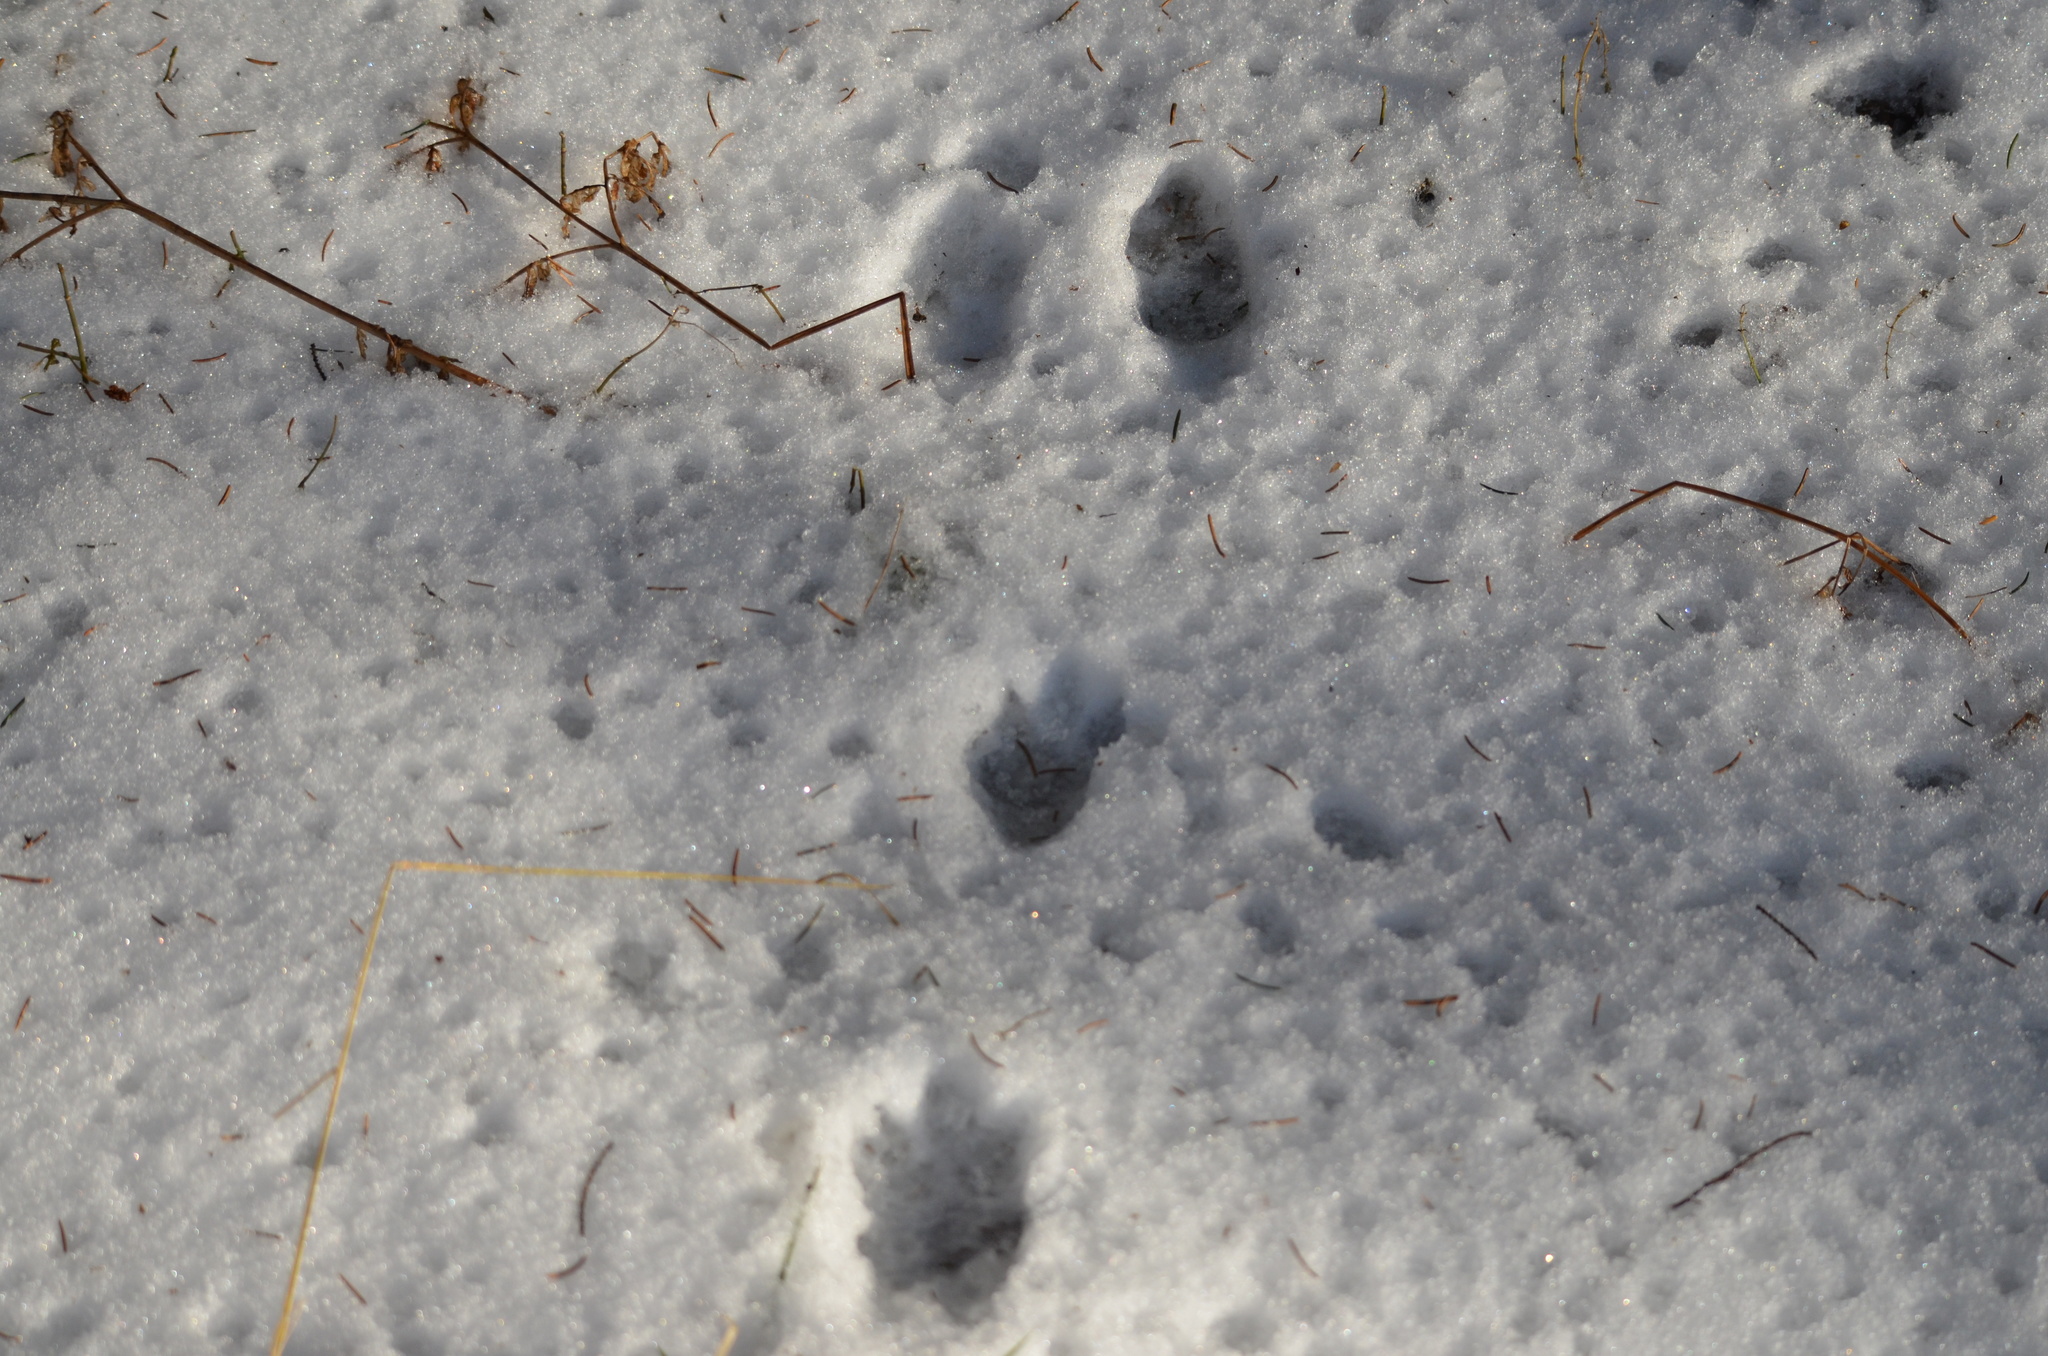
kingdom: Animalia
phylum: Chordata
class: Mammalia
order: Lagomorpha
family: Leporidae
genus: Lepus
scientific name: Lepus europaeus
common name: European hare
